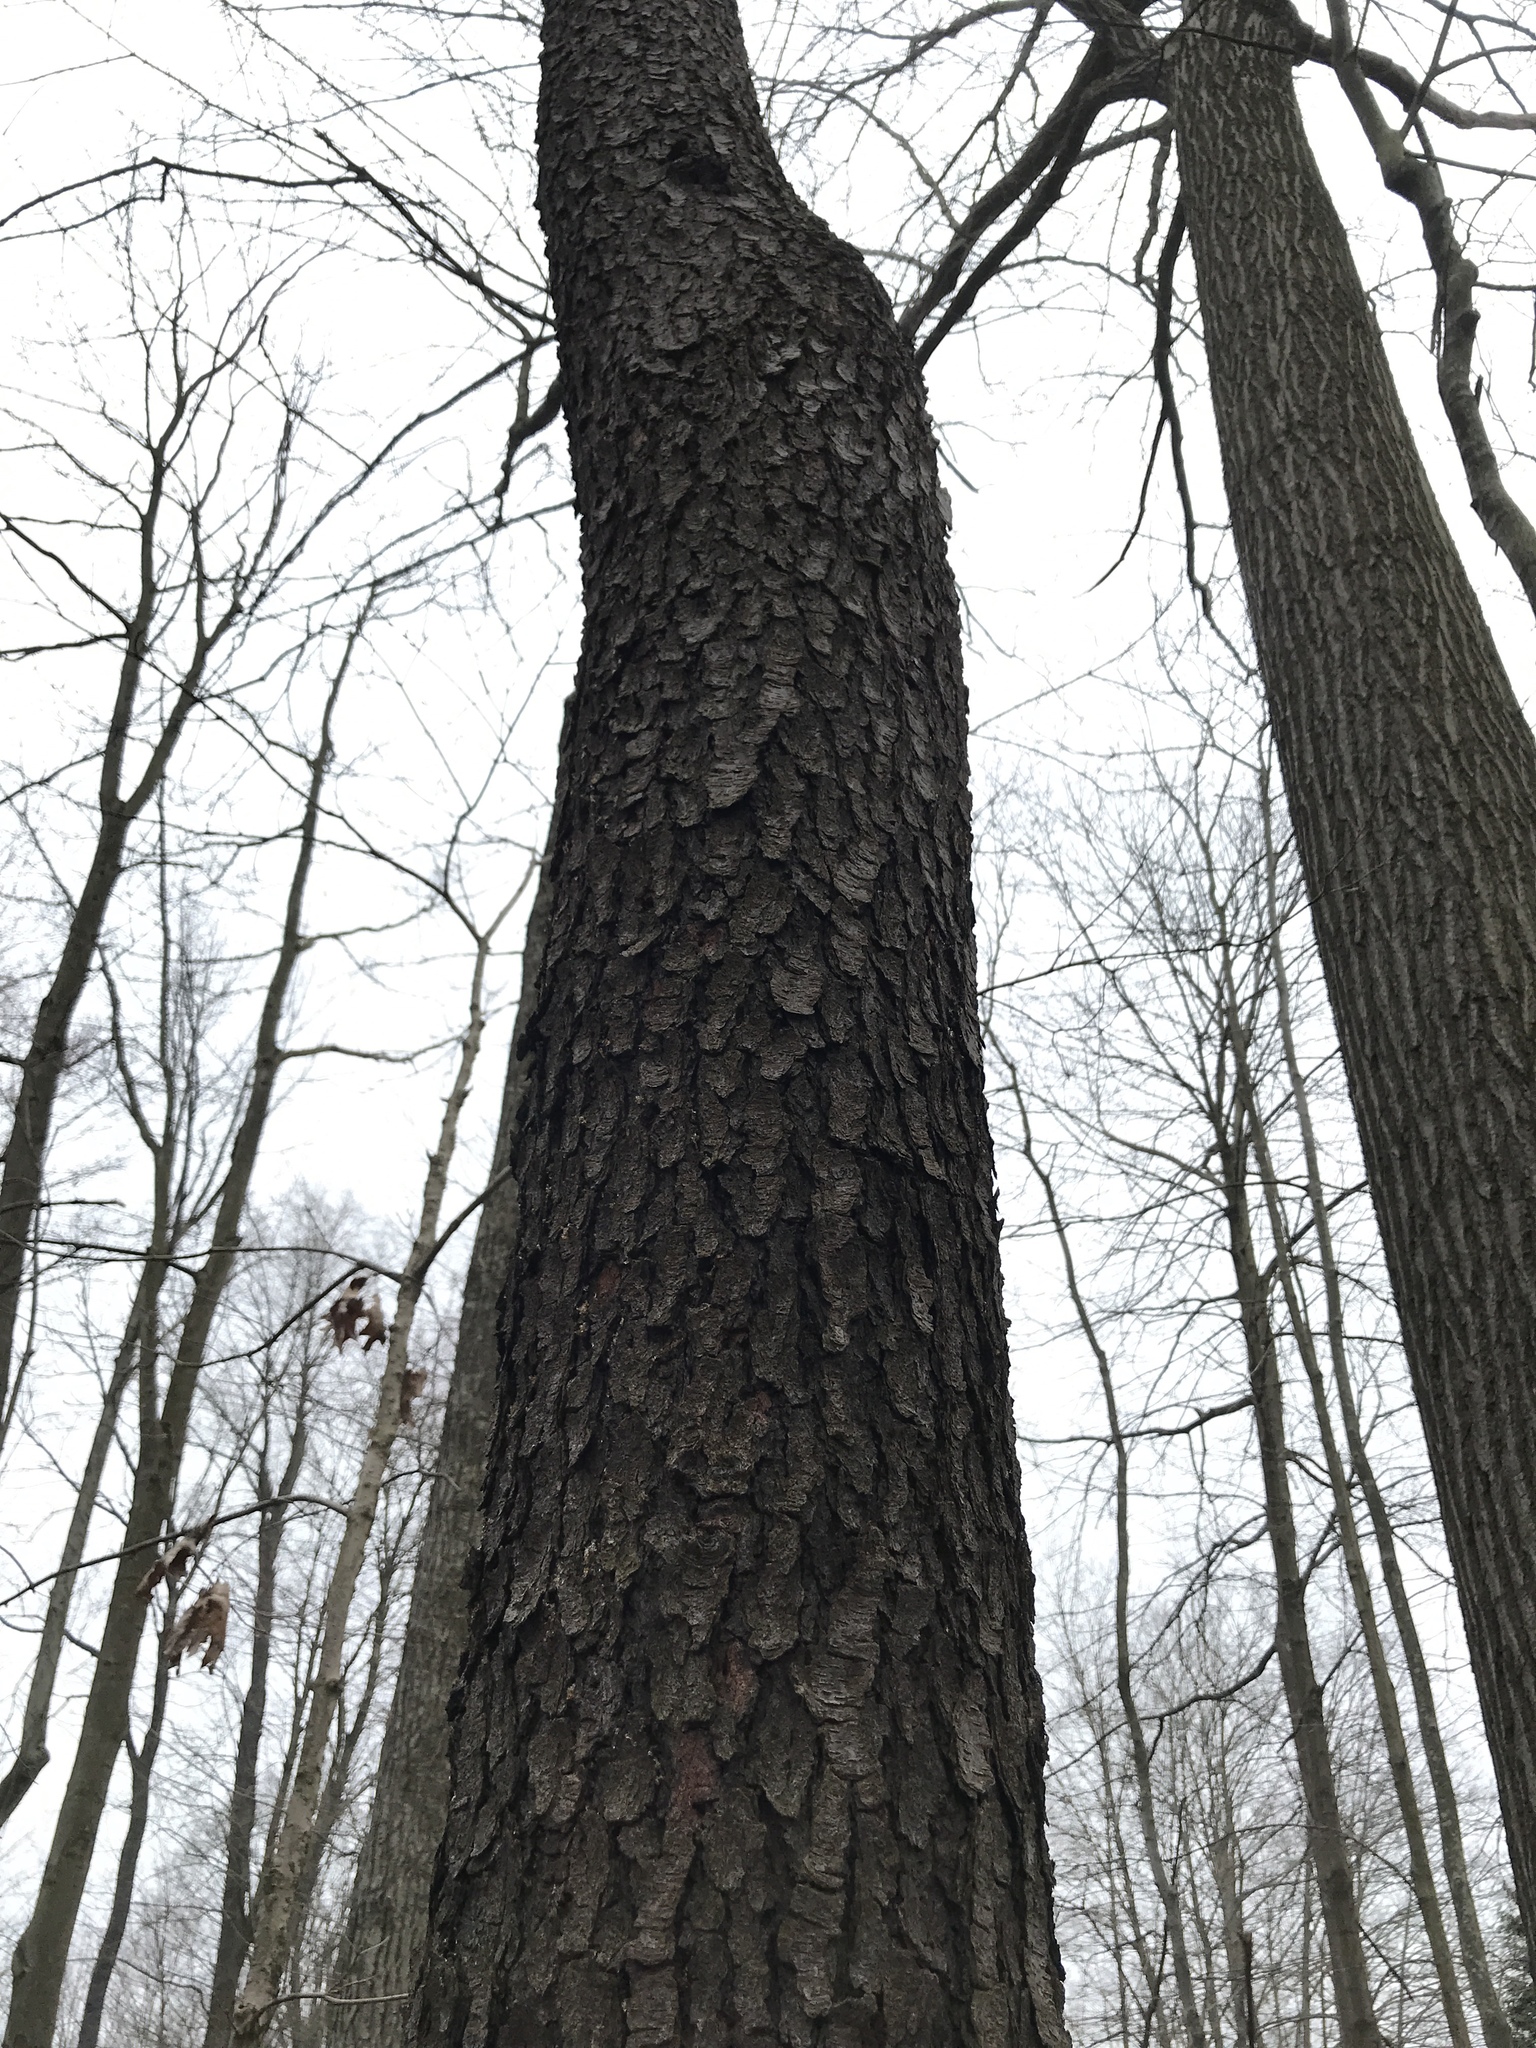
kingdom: Plantae
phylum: Tracheophyta
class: Magnoliopsida
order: Rosales
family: Rosaceae
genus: Prunus
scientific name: Prunus serotina
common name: Black cherry
